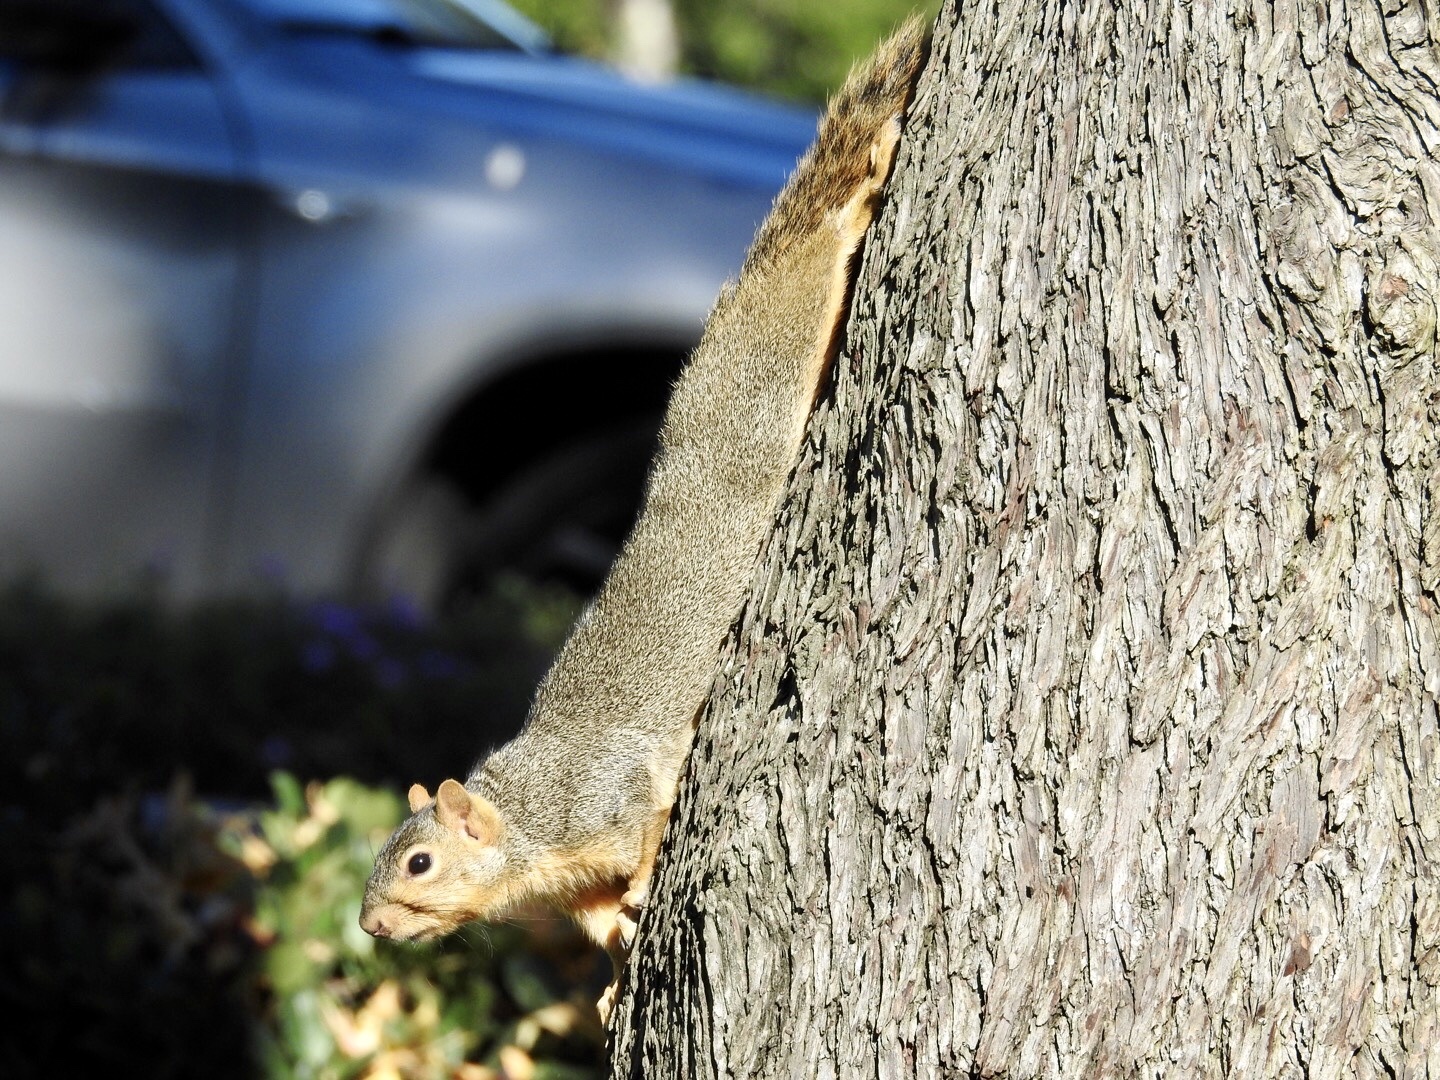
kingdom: Animalia
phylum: Chordata
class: Mammalia
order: Rodentia
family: Sciuridae
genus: Sciurus
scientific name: Sciurus niger
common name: Fox squirrel
